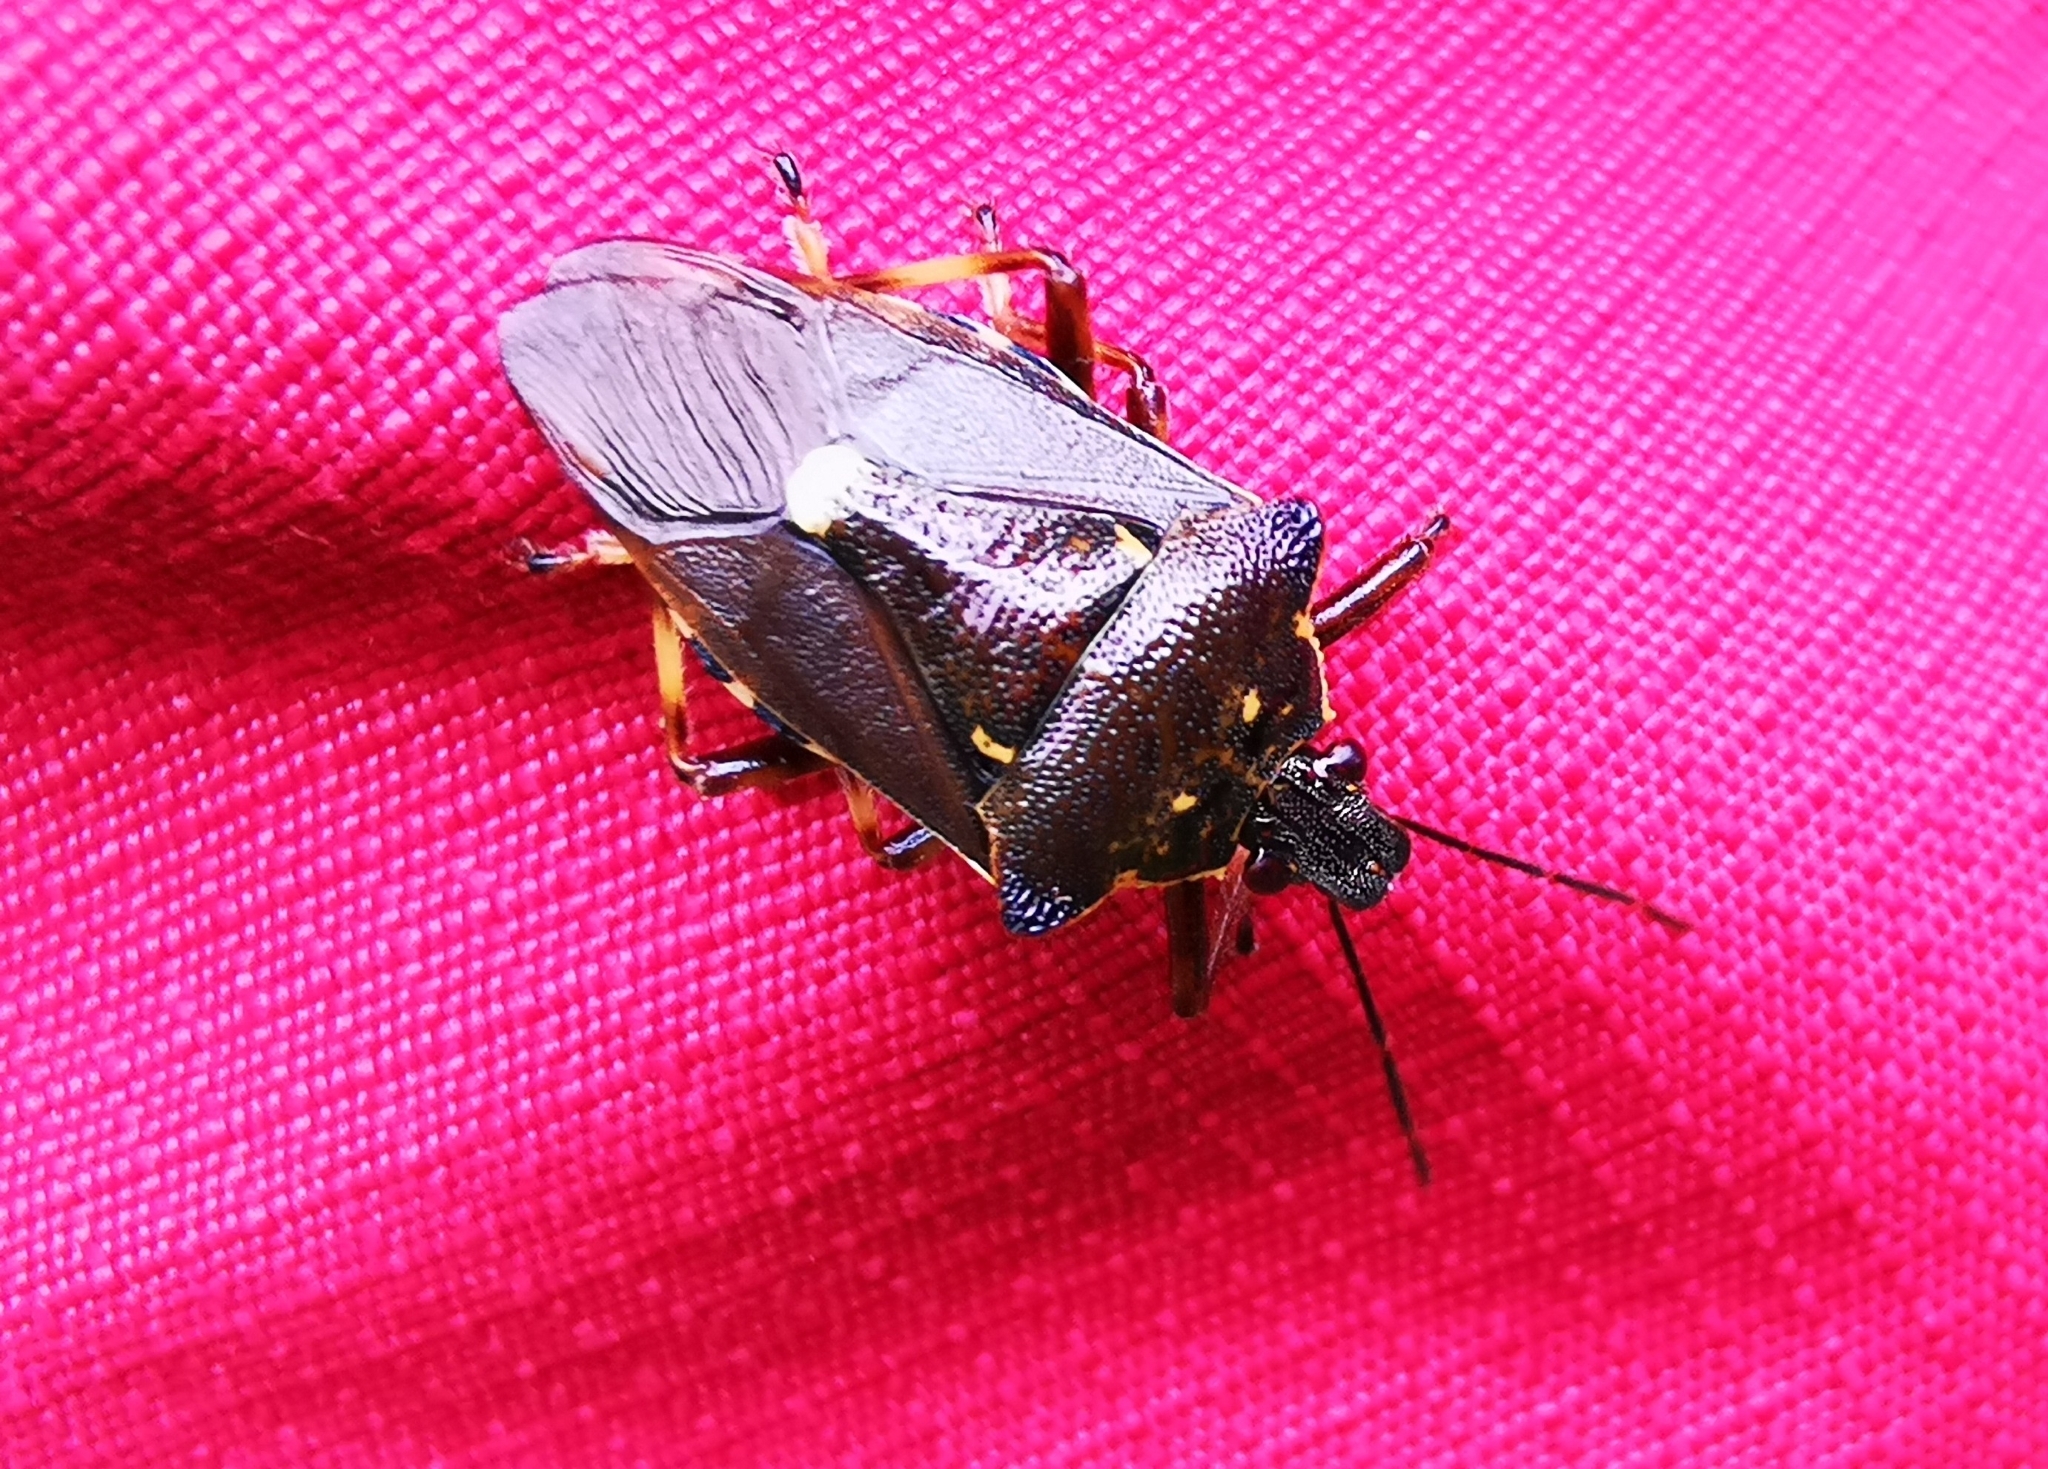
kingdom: Animalia
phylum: Arthropoda
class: Insecta
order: Hemiptera
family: Pentatomidae
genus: Pinthaeus
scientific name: Pinthaeus sanguinipes
